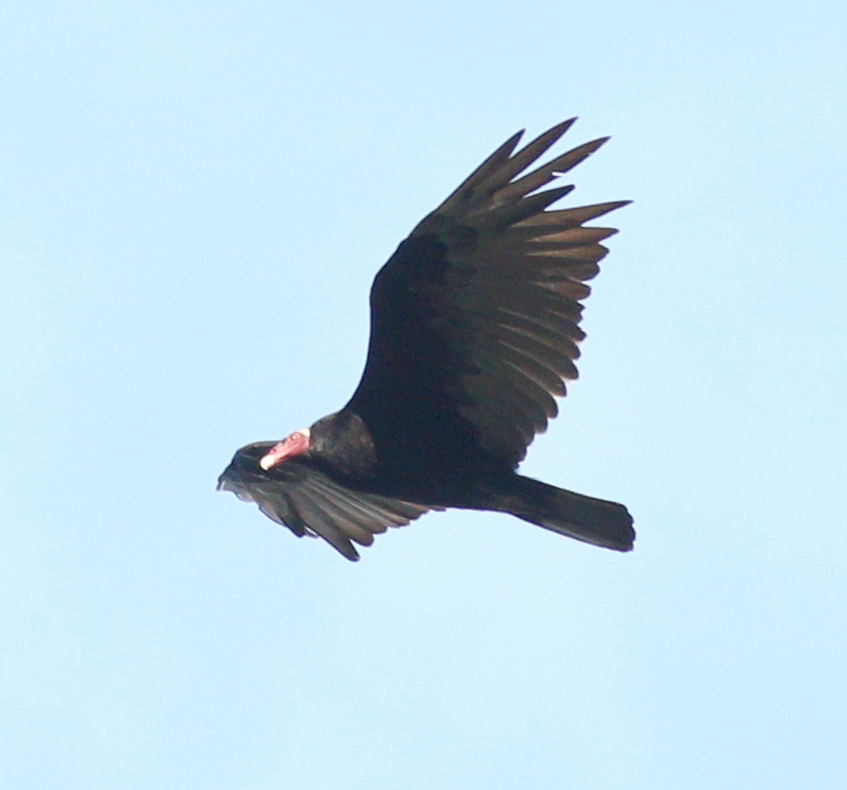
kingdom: Animalia
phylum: Chordata
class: Aves
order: Accipitriformes
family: Cathartidae
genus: Cathartes
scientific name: Cathartes aura
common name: Turkey vulture
